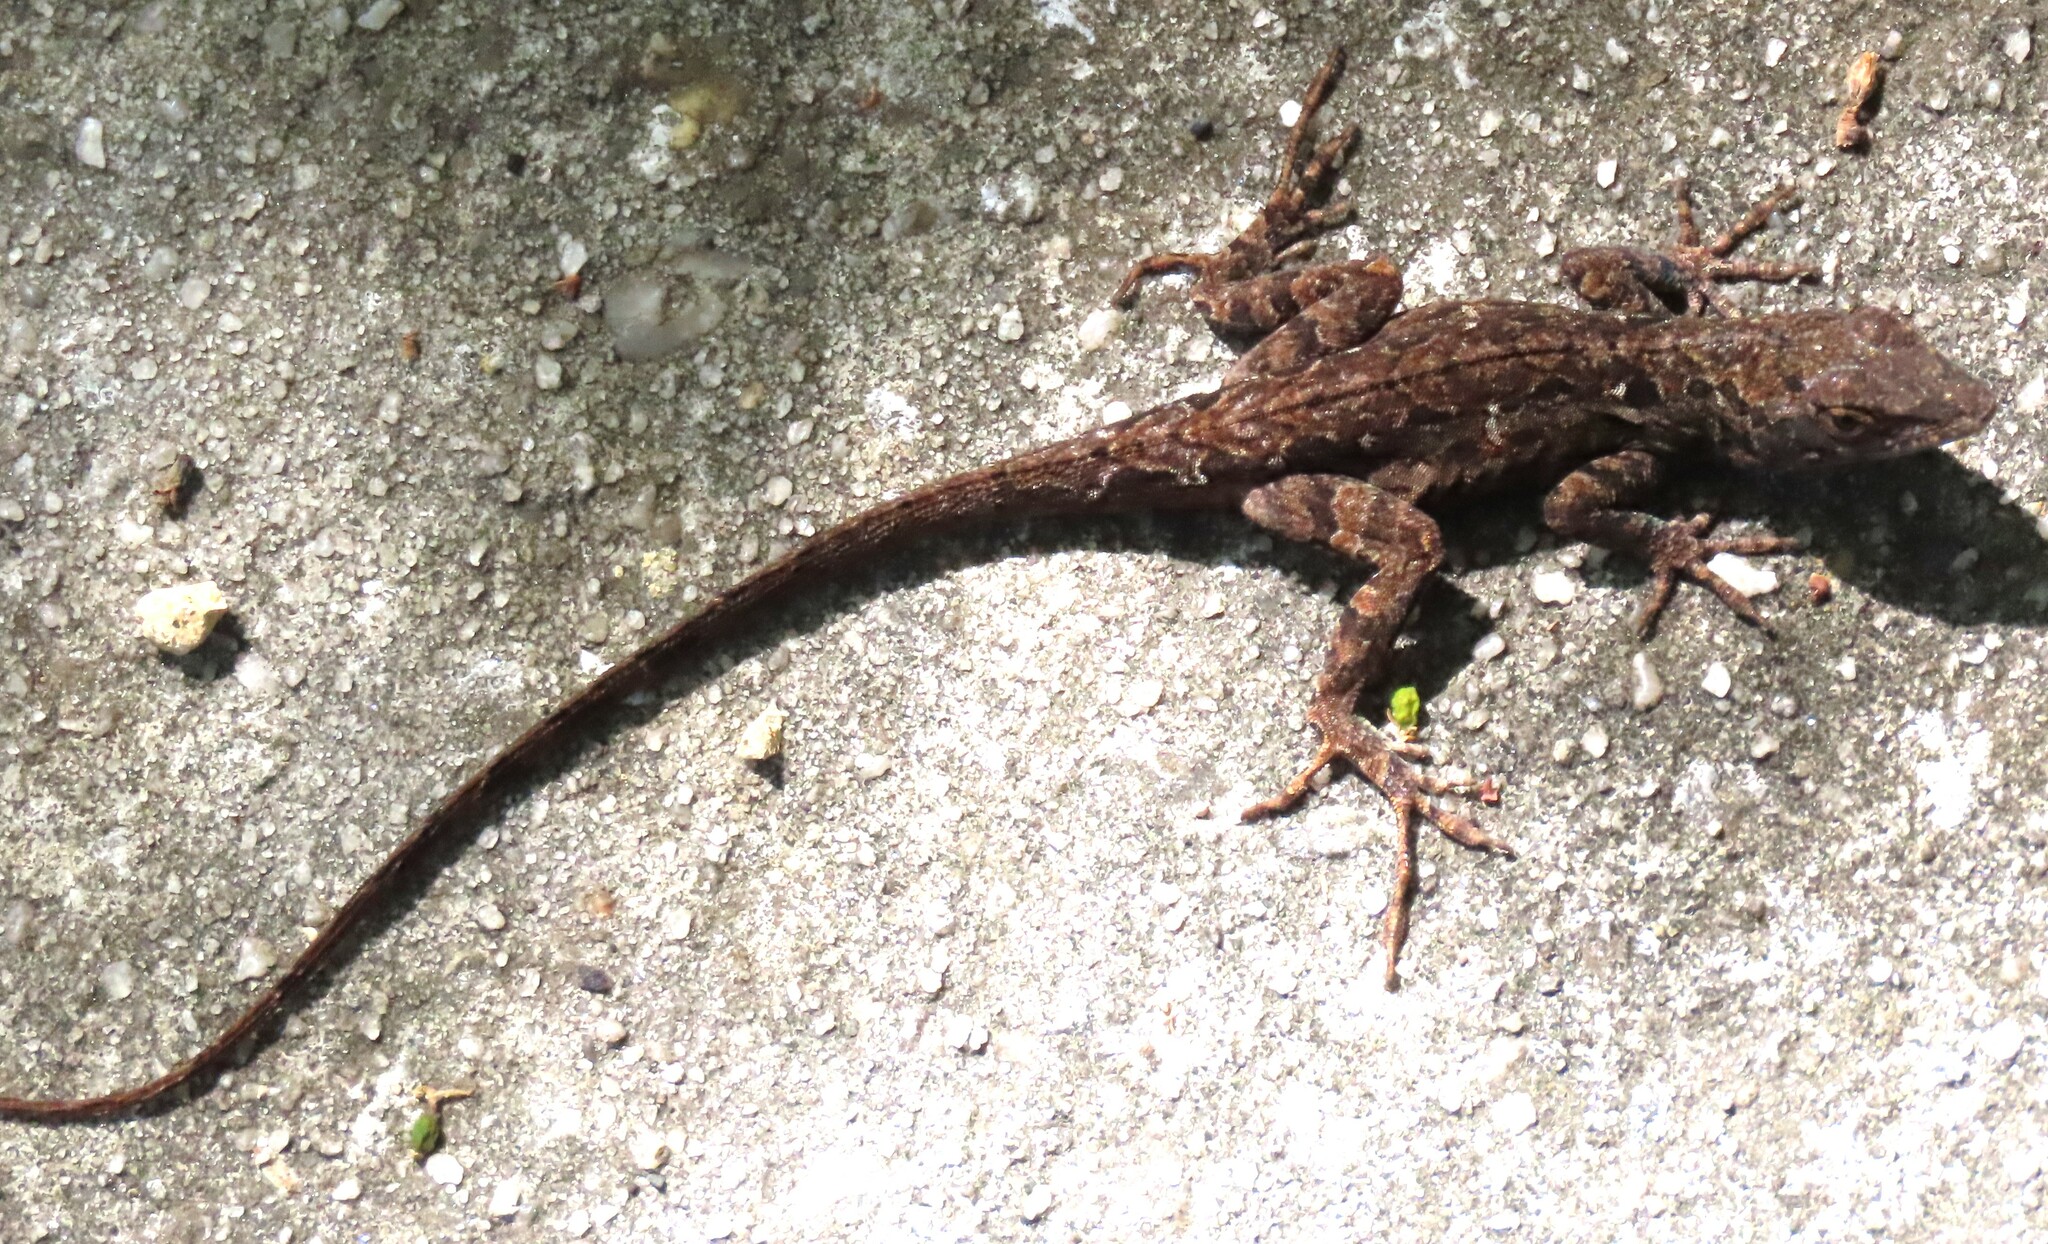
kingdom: Animalia
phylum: Chordata
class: Squamata
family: Dactyloidae
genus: Anolis
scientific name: Anolis sagrei
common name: Brown anole
